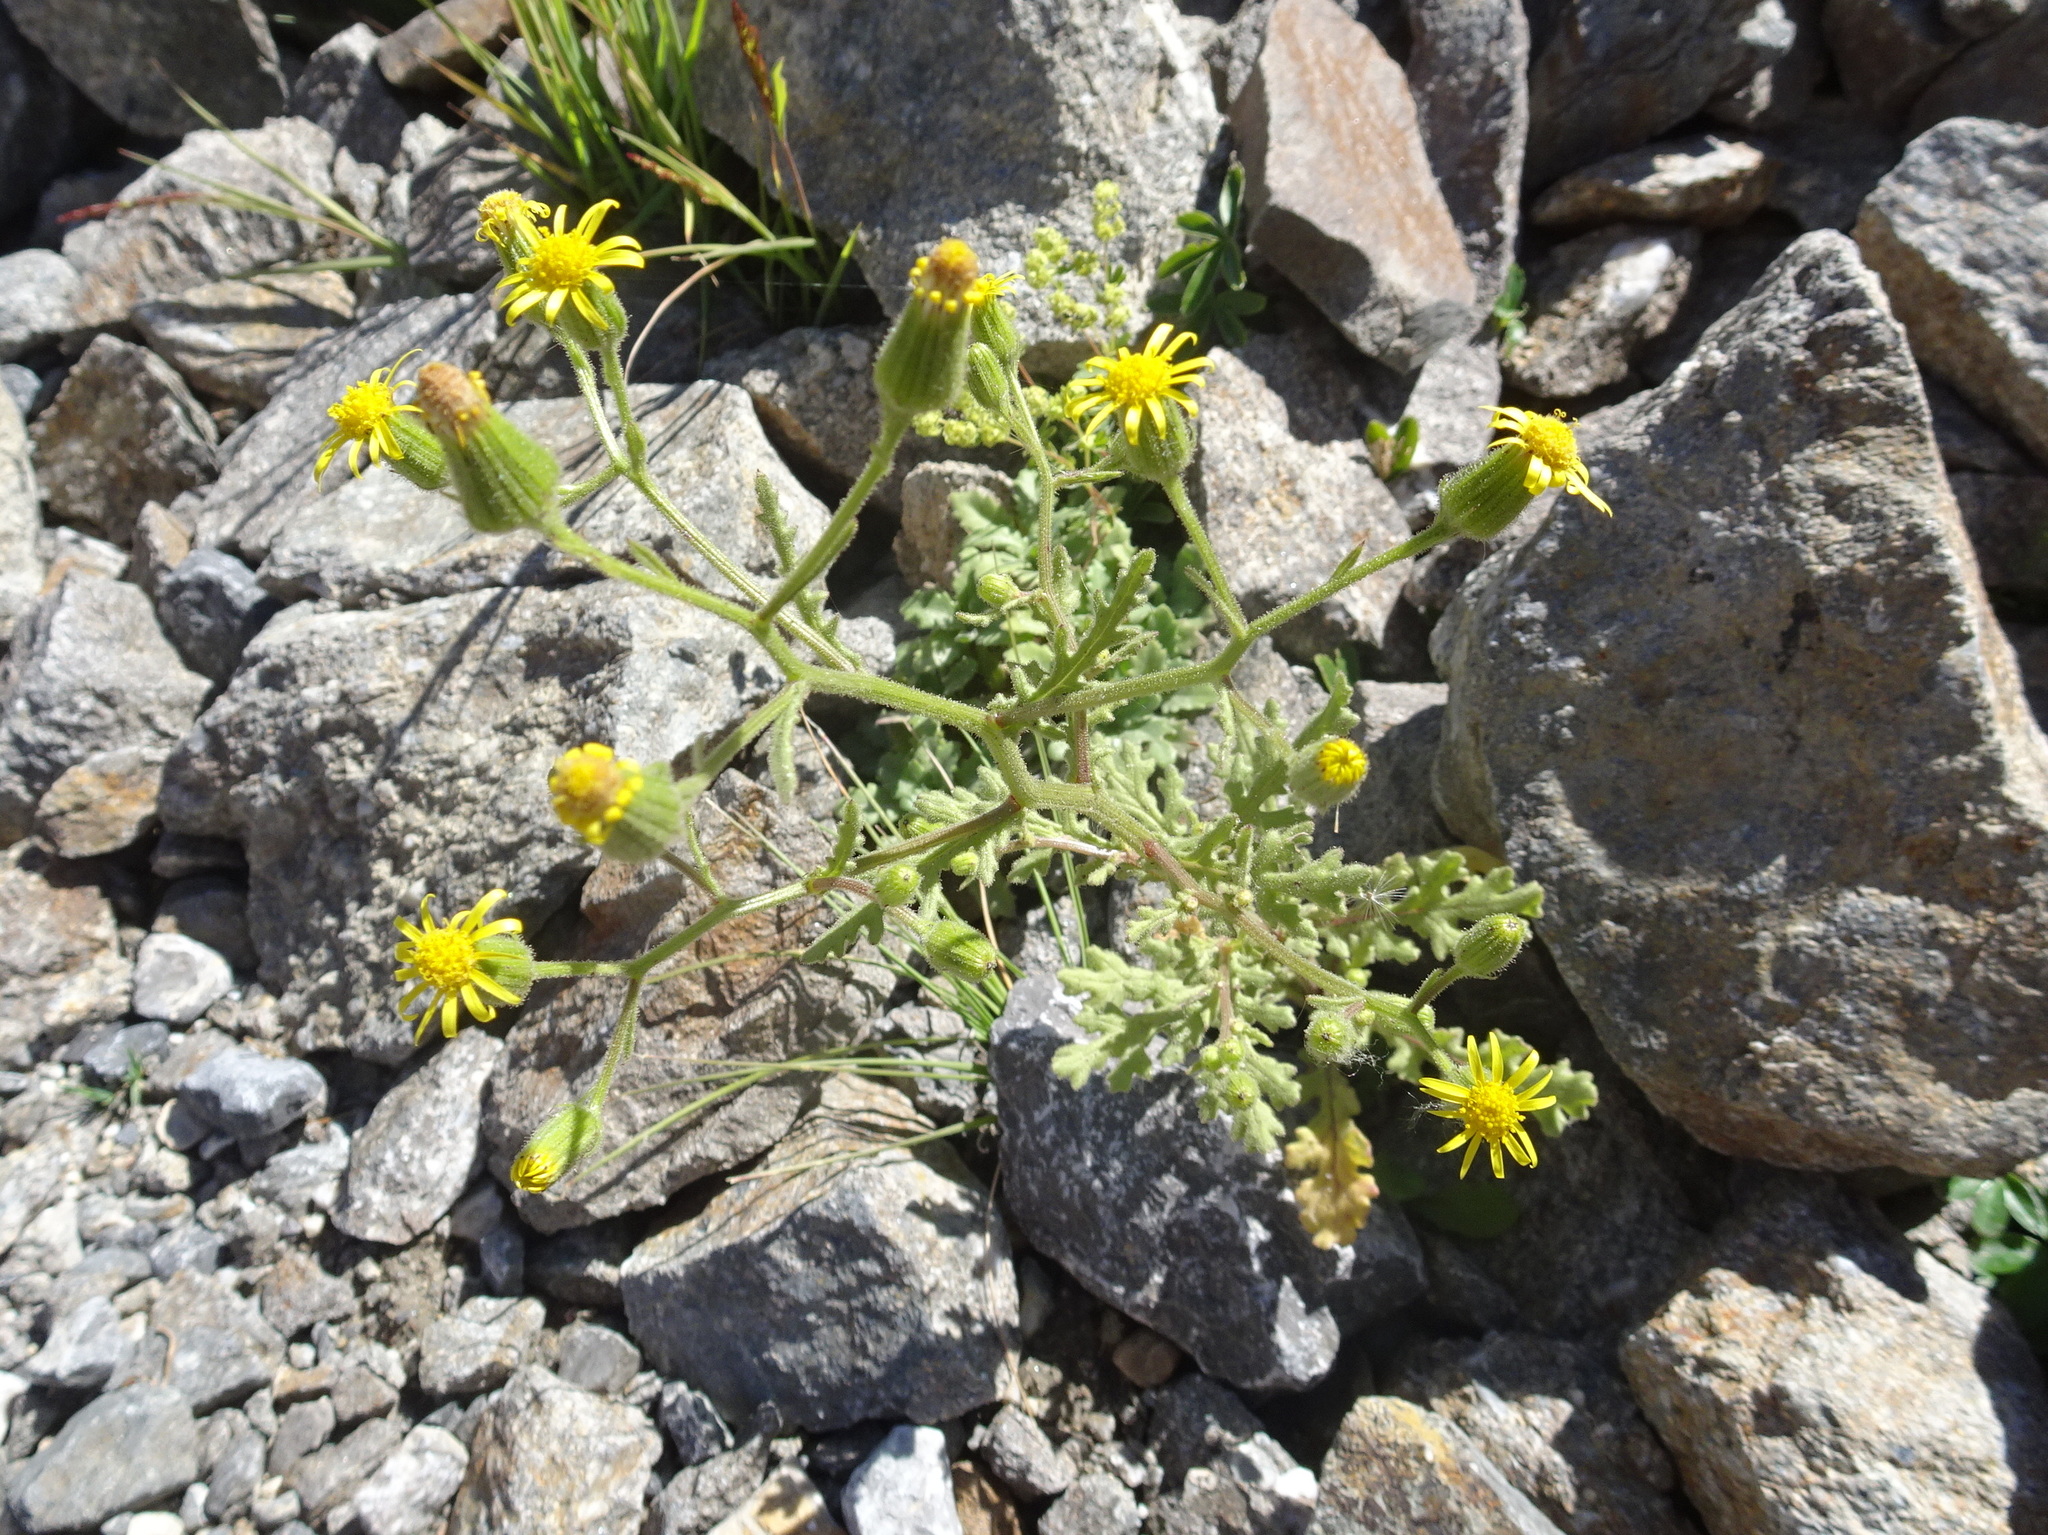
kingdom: Plantae
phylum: Tracheophyta
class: Magnoliopsida
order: Asterales
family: Asteraceae
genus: Senecio
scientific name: Senecio viscosus
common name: Sticky groundsel
